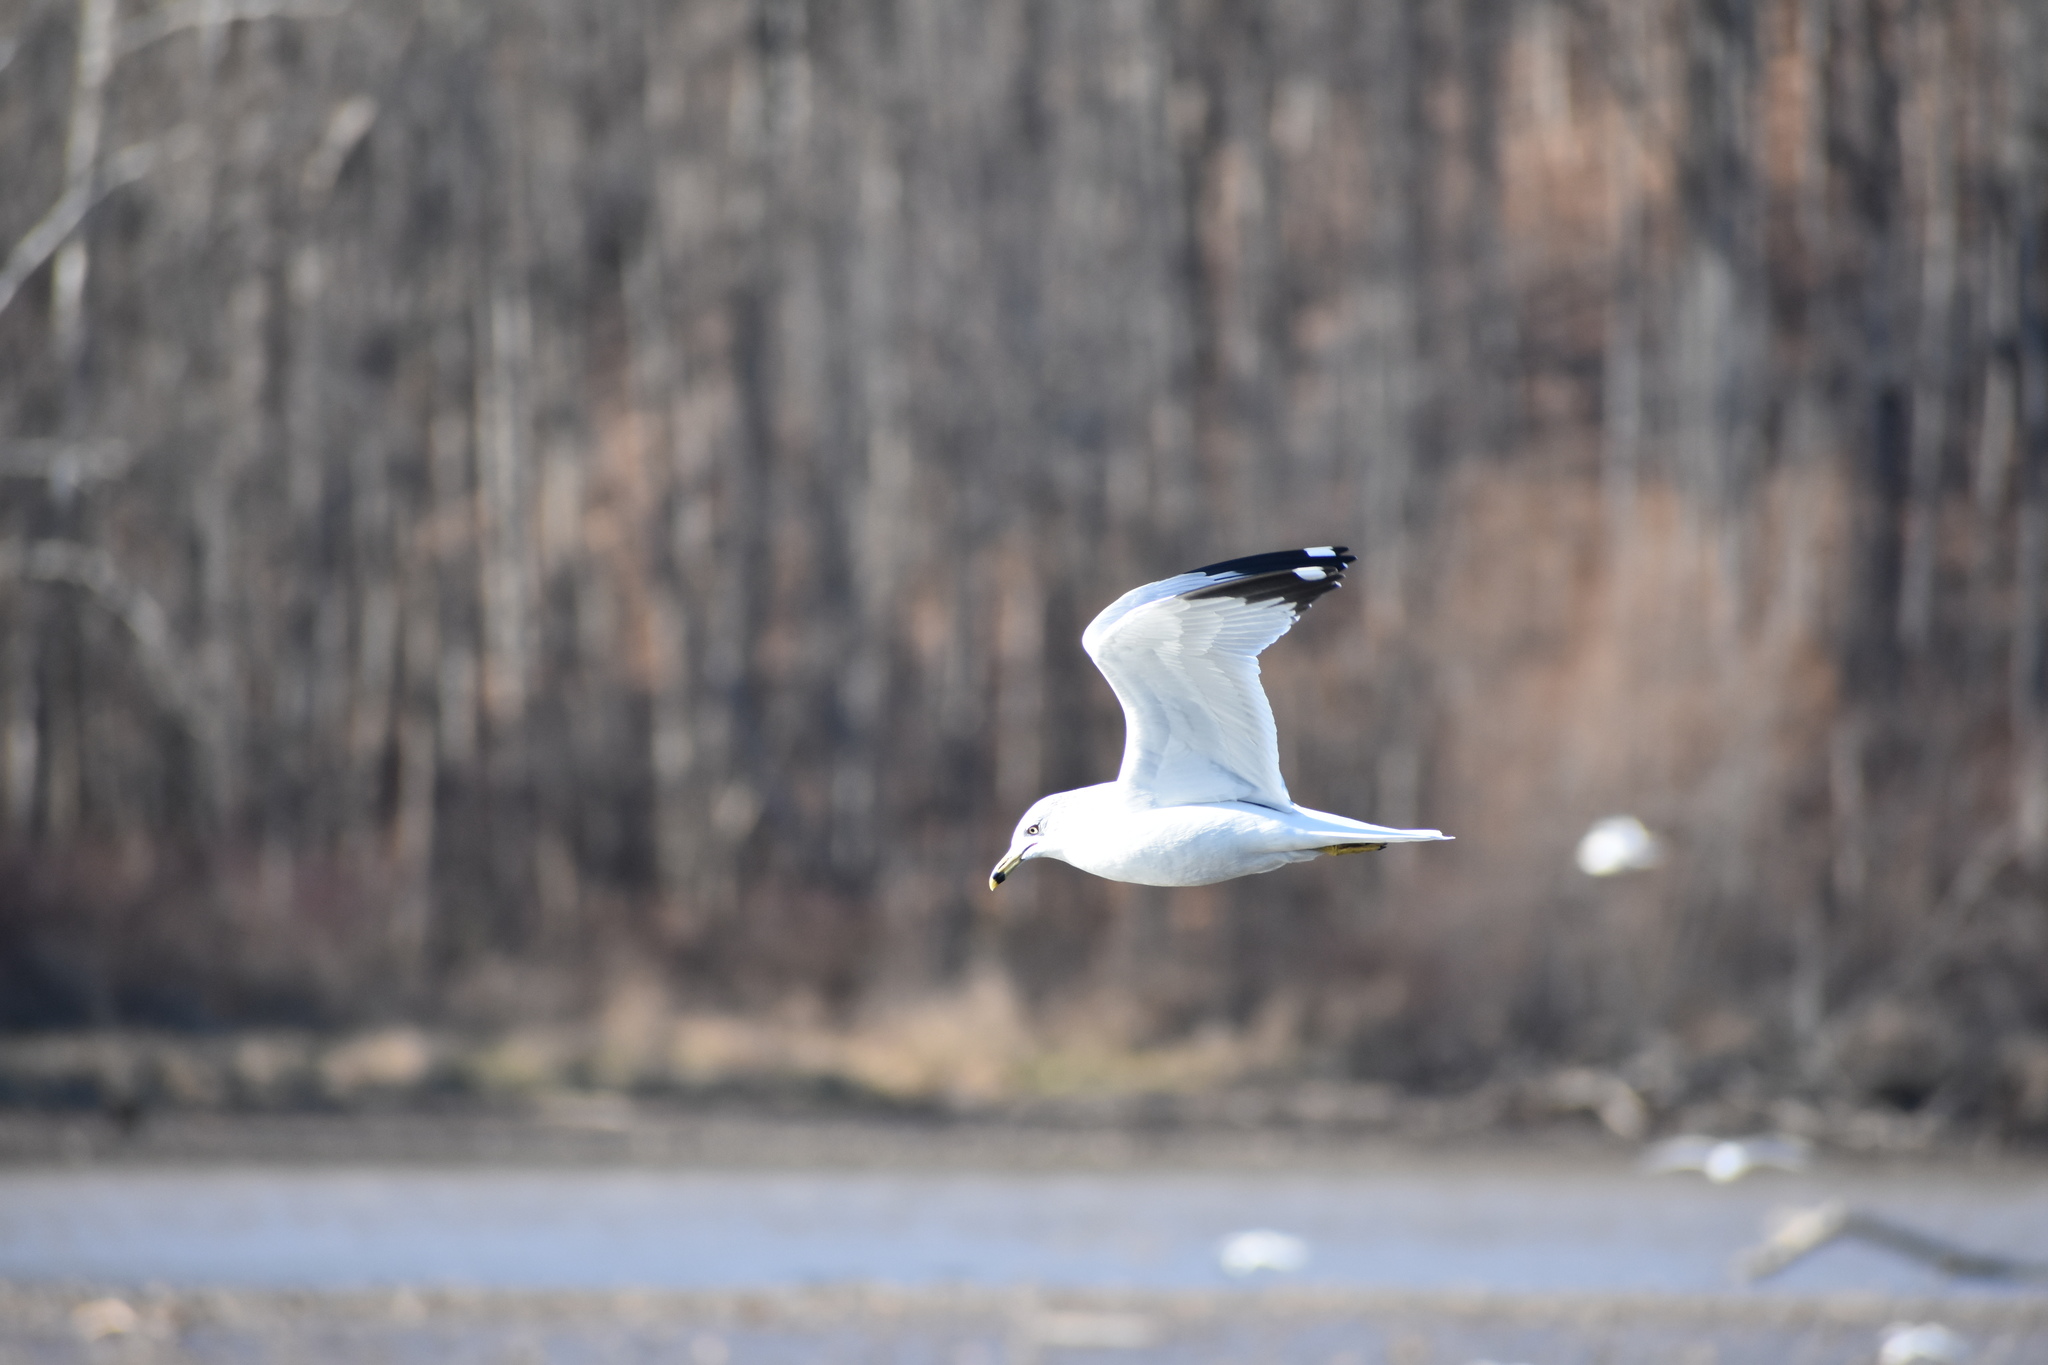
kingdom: Animalia
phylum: Chordata
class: Aves
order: Charadriiformes
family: Laridae
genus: Larus
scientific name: Larus delawarensis
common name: Ring-billed gull
